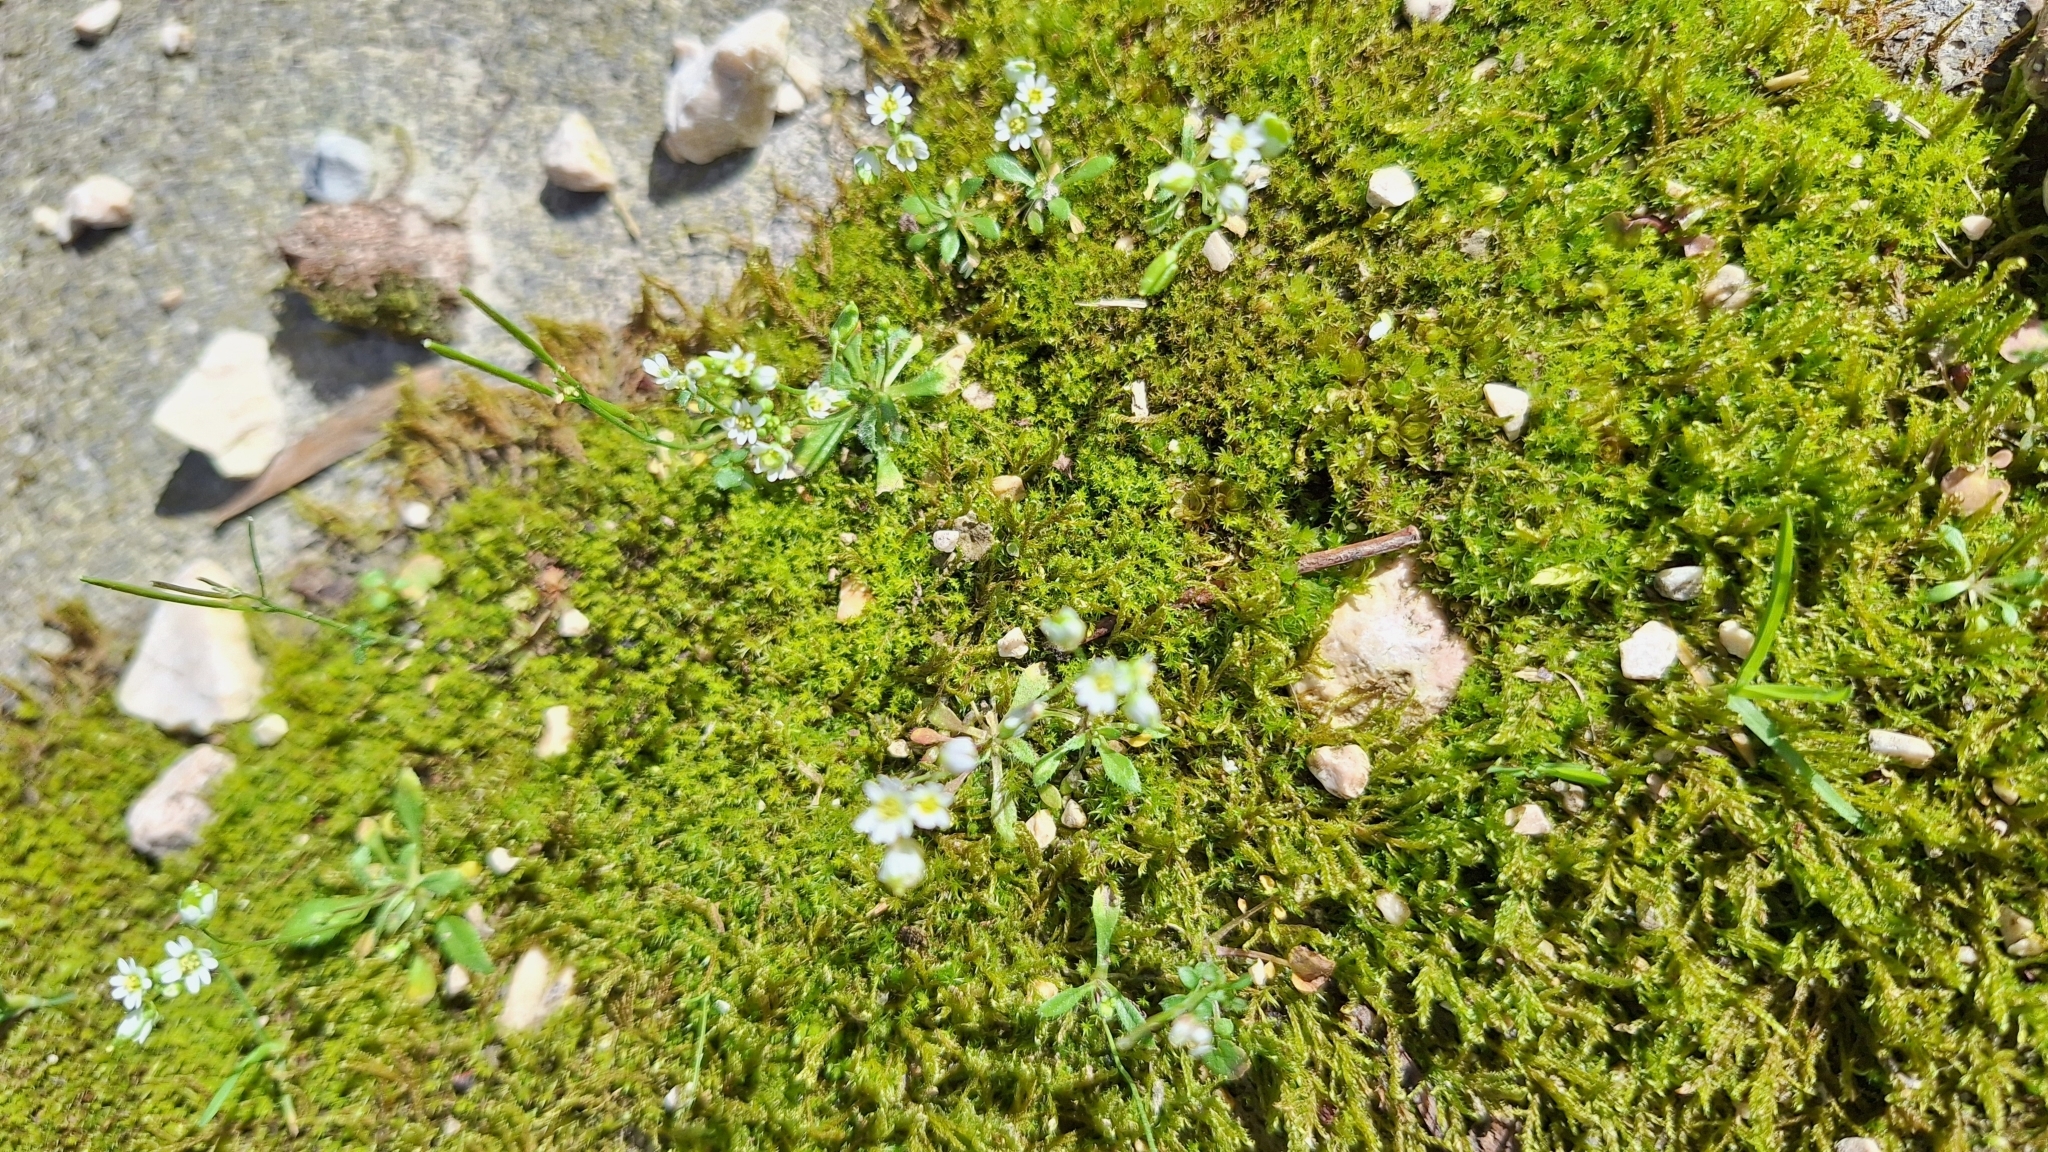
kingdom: Plantae
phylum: Tracheophyta
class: Magnoliopsida
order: Brassicales
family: Brassicaceae
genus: Draba
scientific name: Draba verna
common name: Spring draba
